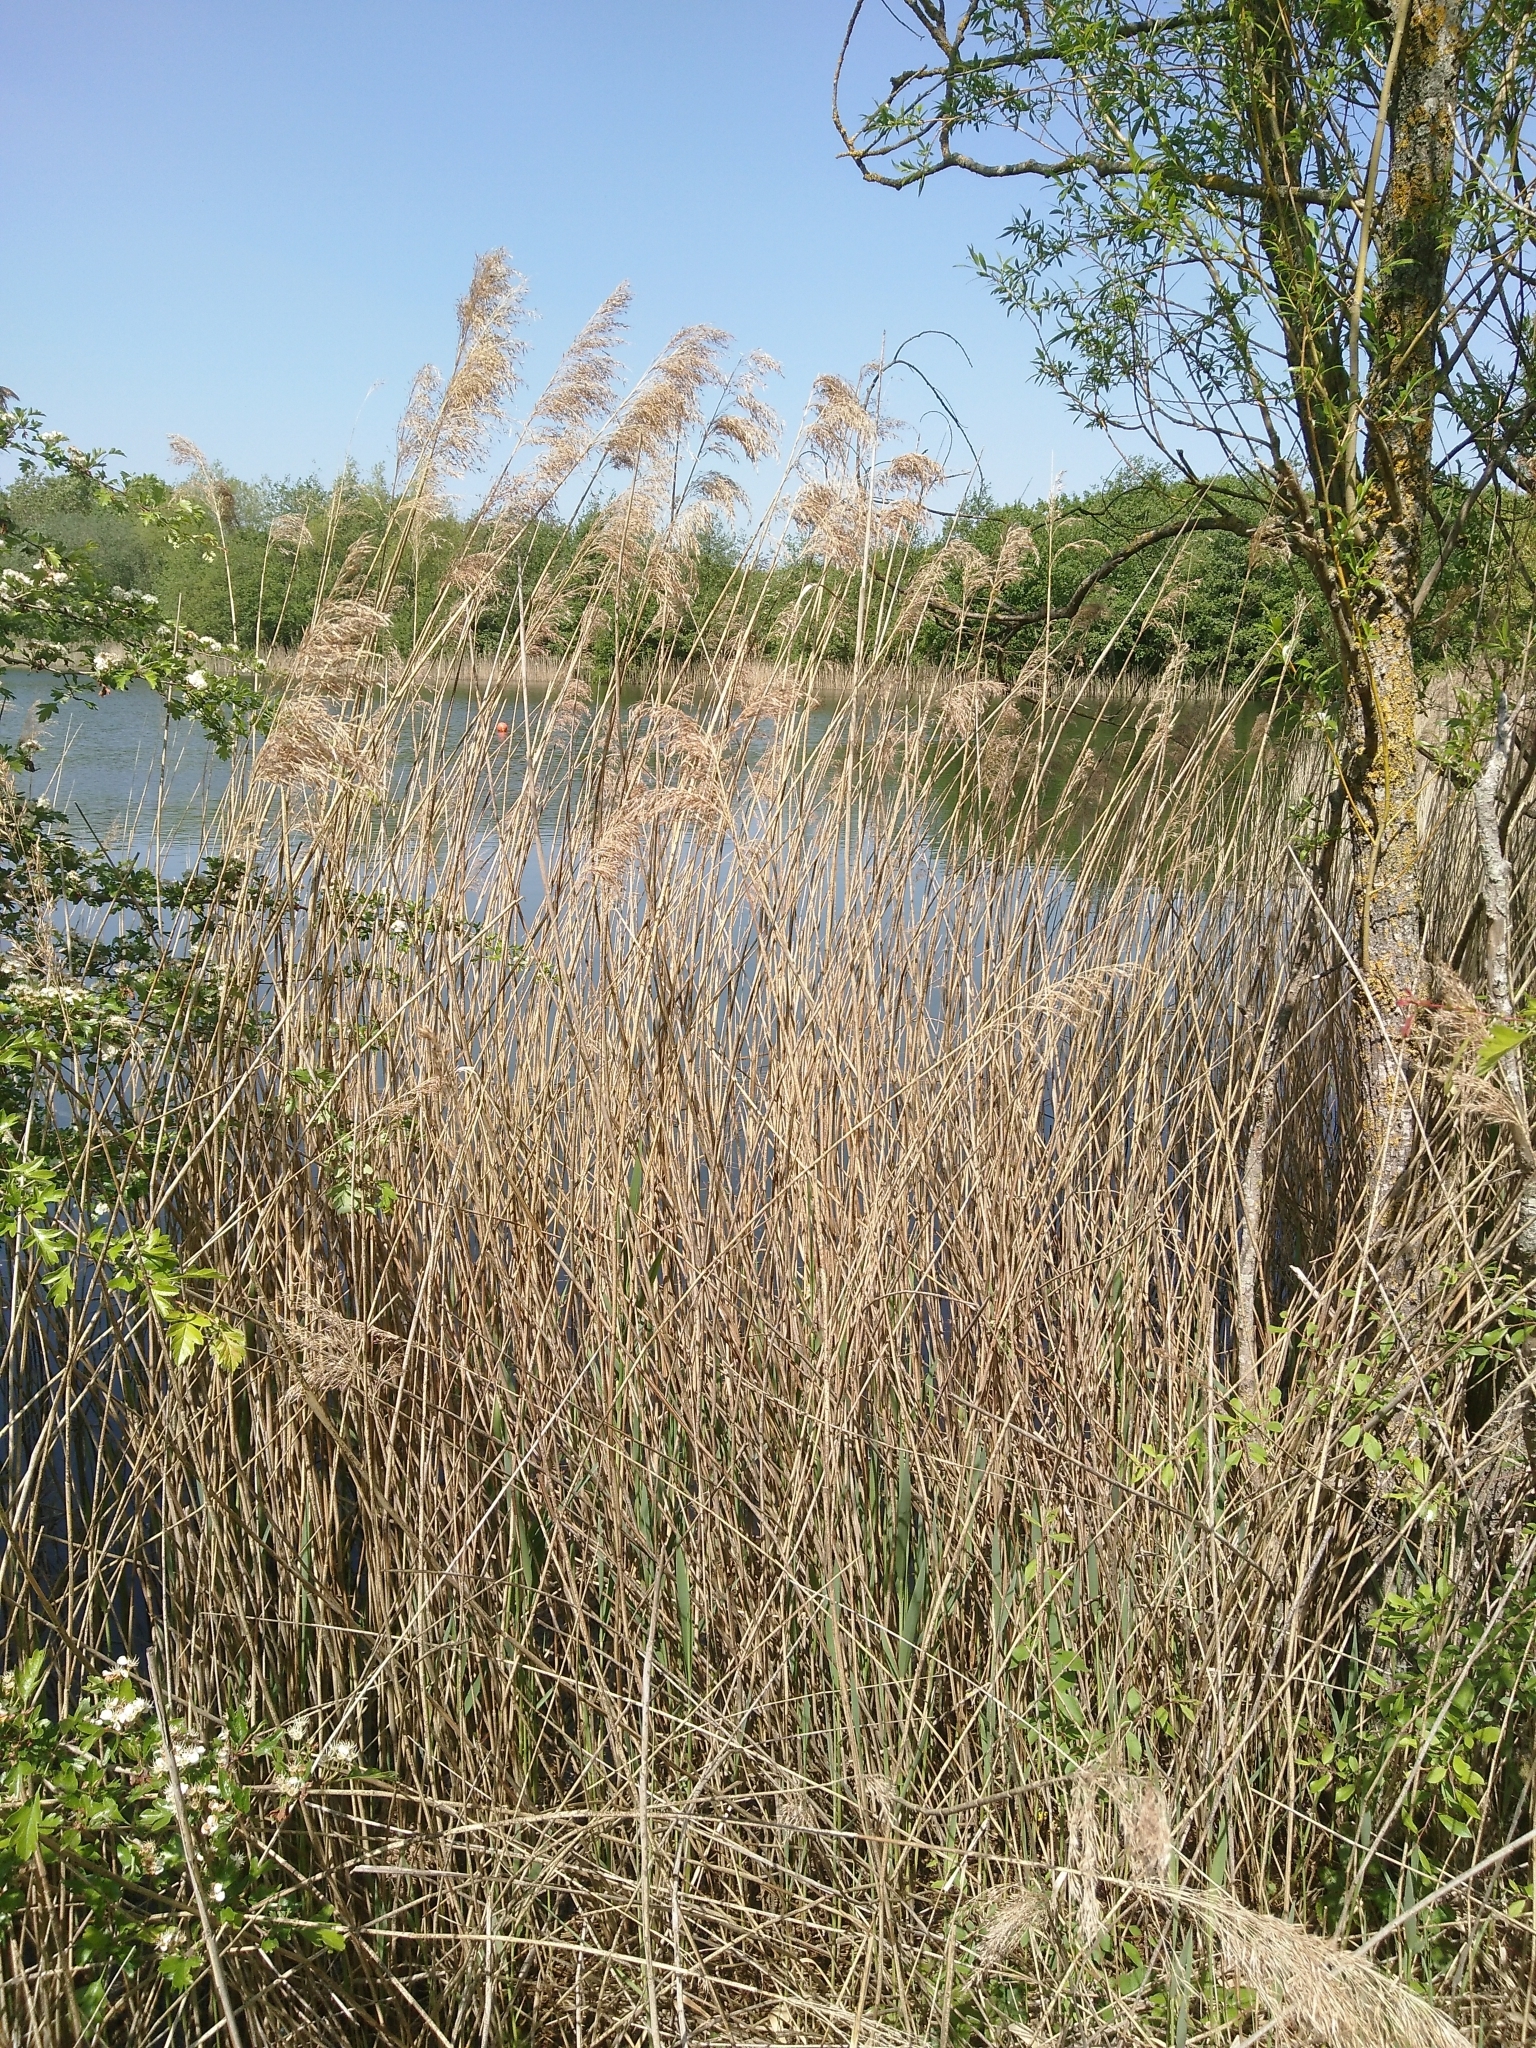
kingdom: Plantae
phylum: Tracheophyta
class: Liliopsida
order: Poales
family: Poaceae
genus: Phragmites
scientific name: Phragmites australis
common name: Common reed
